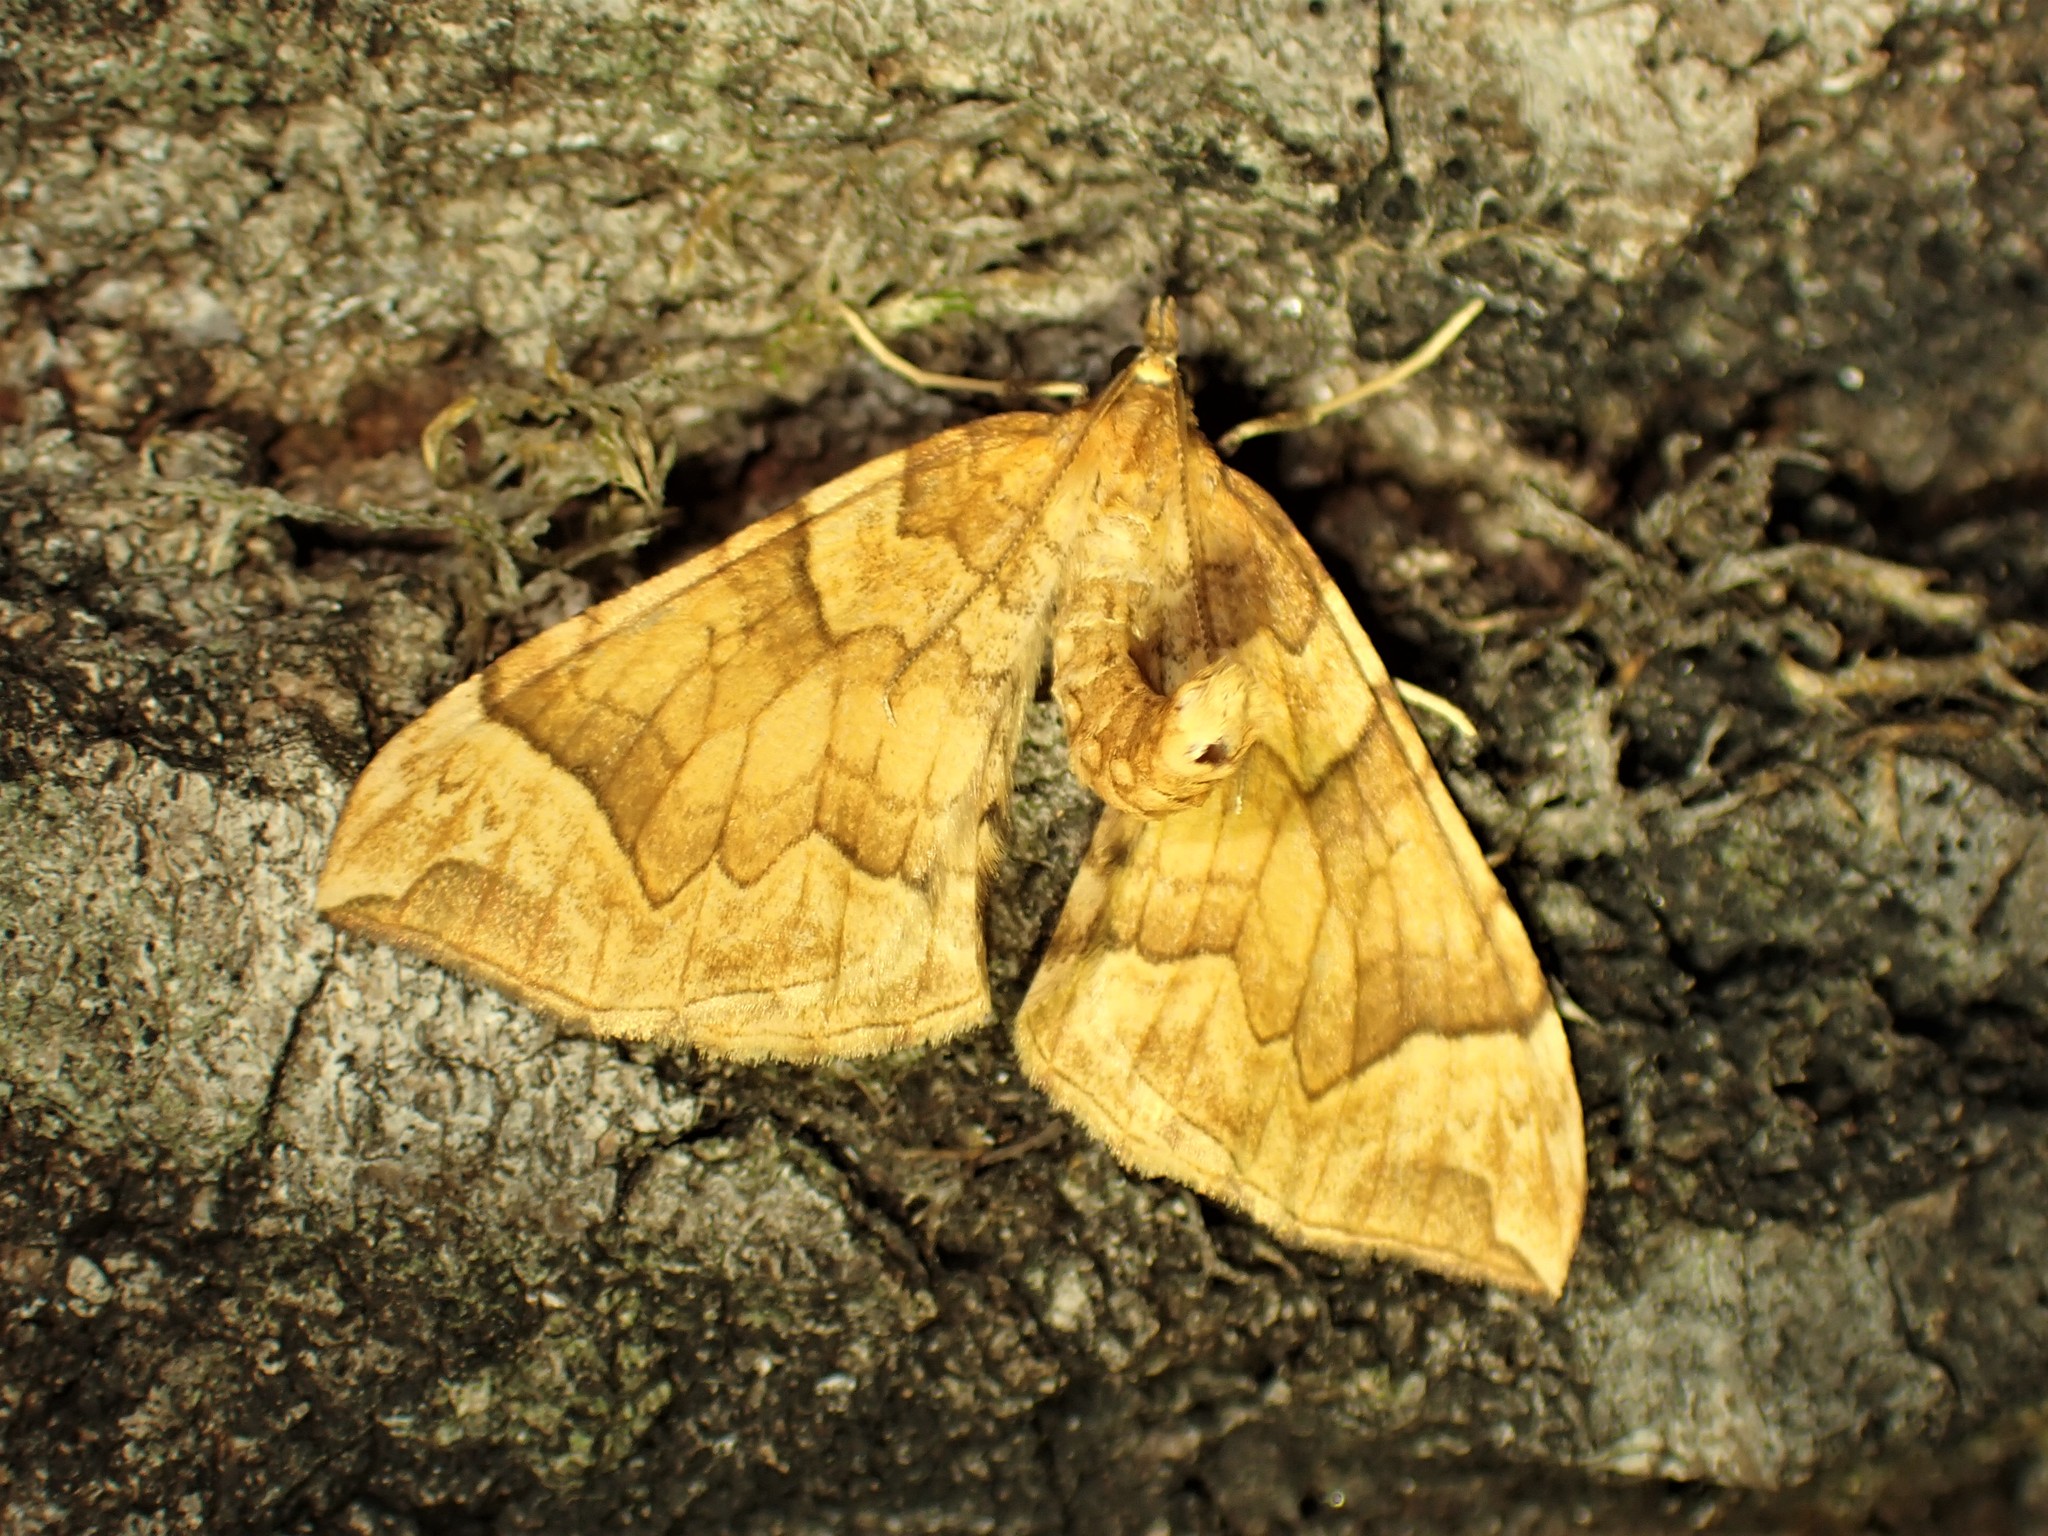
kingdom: Animalia
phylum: Arthropoda
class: Insecta
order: Lepidoptera
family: Geometridae
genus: Eulithis
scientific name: Eulithis propulsata
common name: Currant eulithis moth
